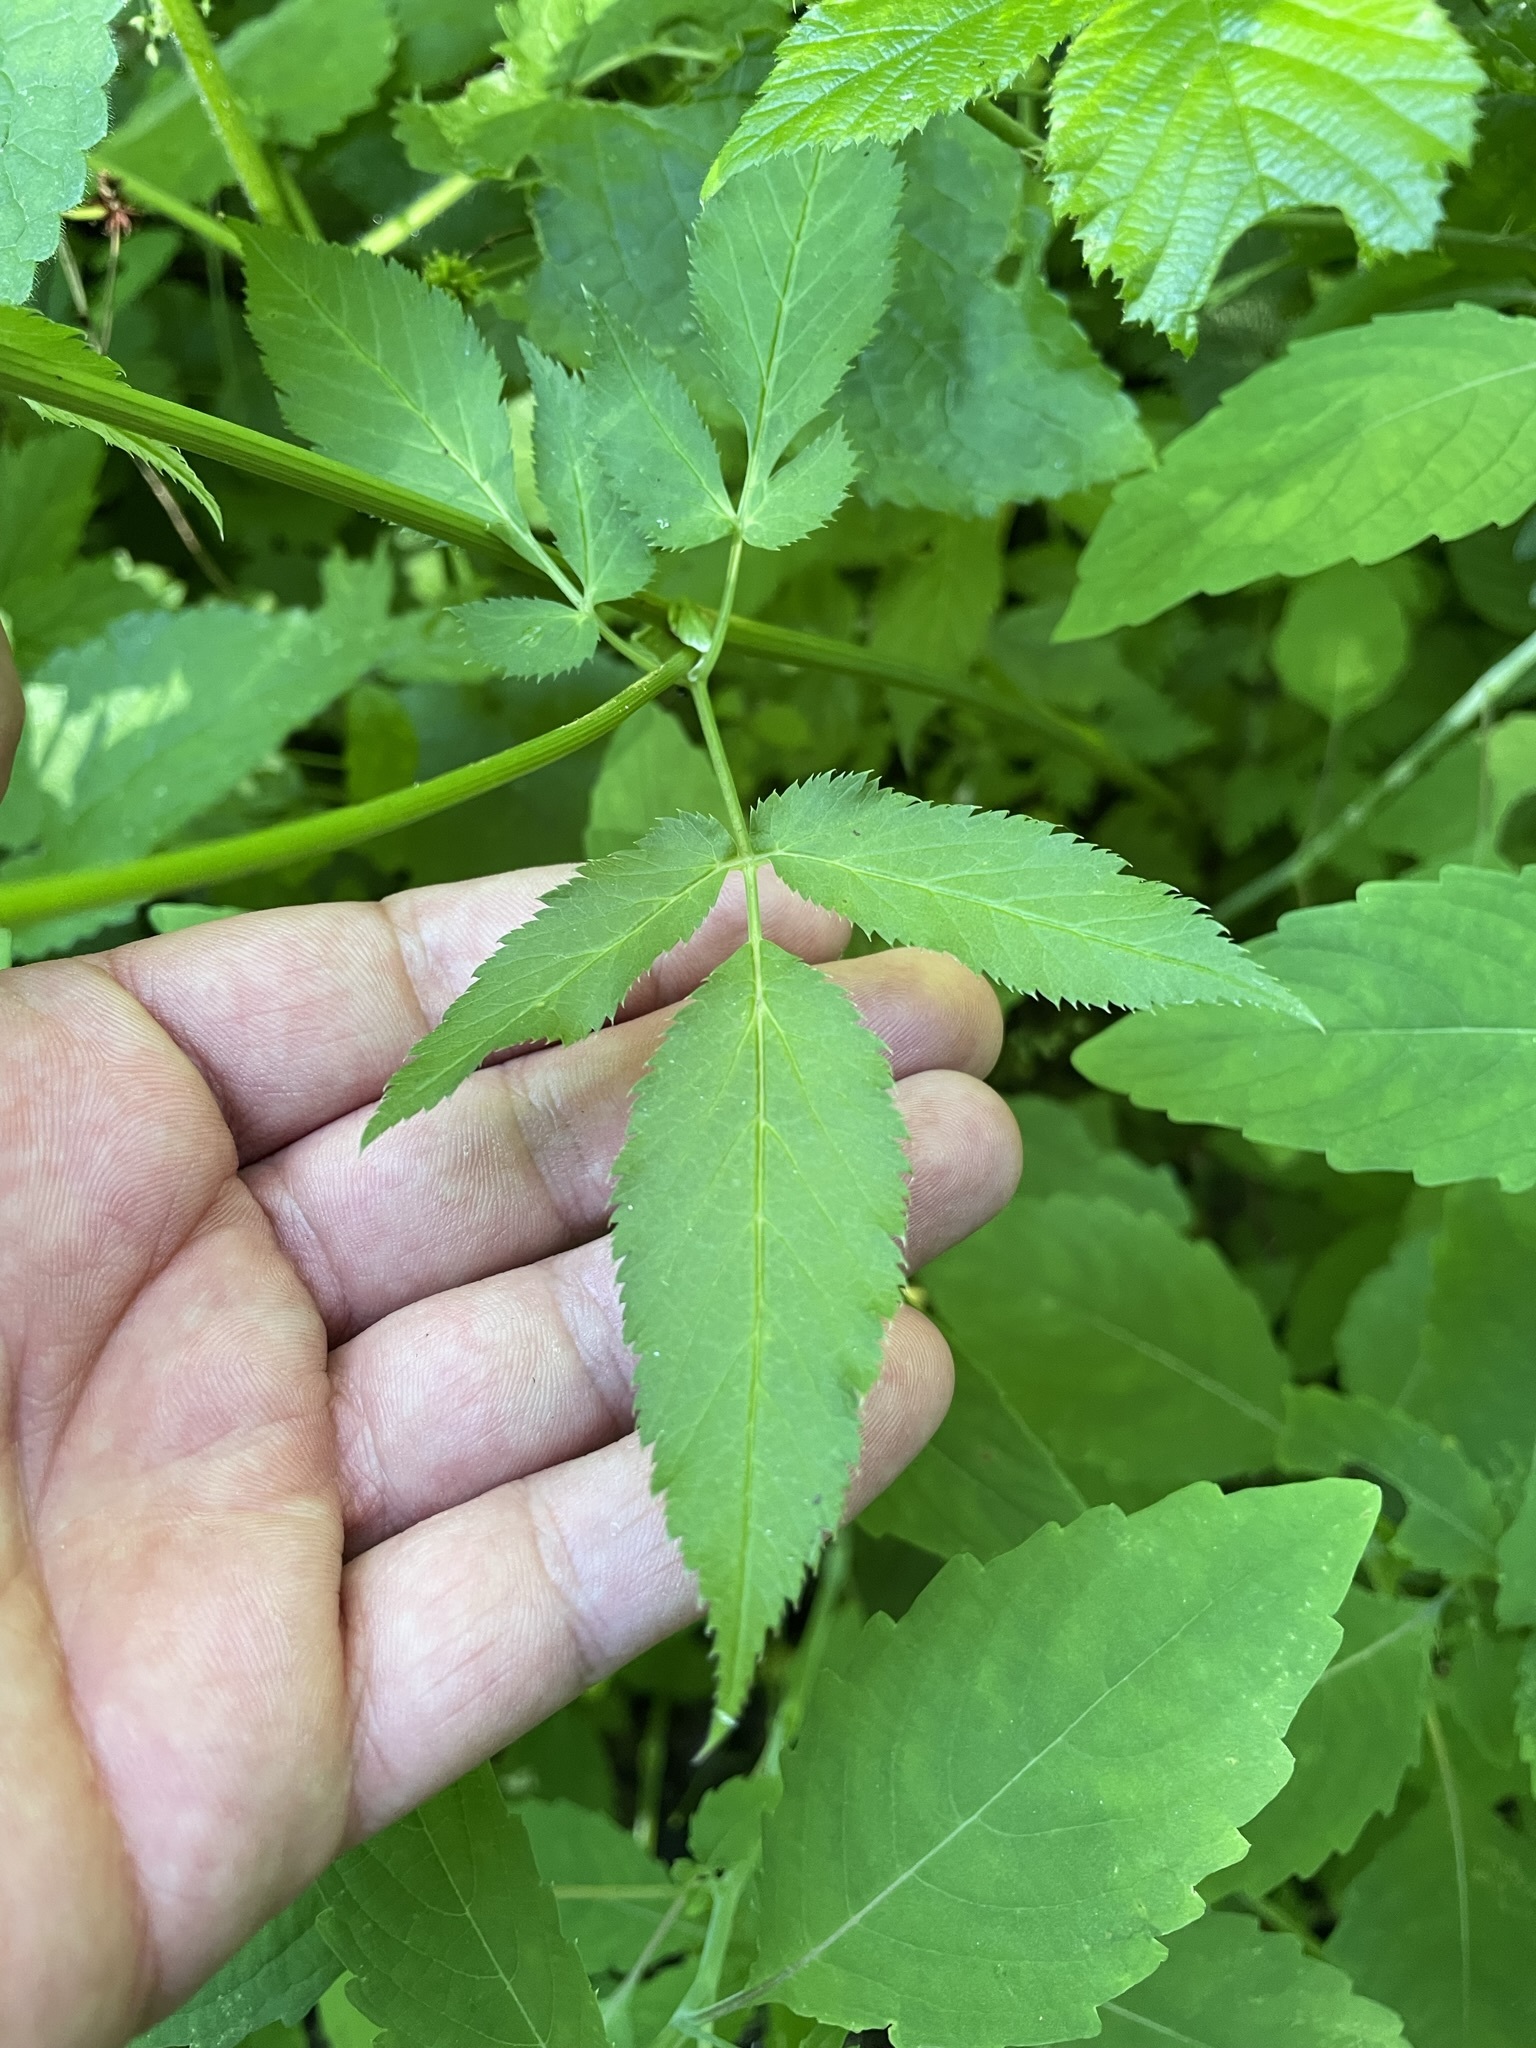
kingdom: Plantae
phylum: Tracheophyta
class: Magnoliopsida
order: Apiales
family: Apiaceae
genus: Aegopodium
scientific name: Aegopodium podagraria
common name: Ground-elder
